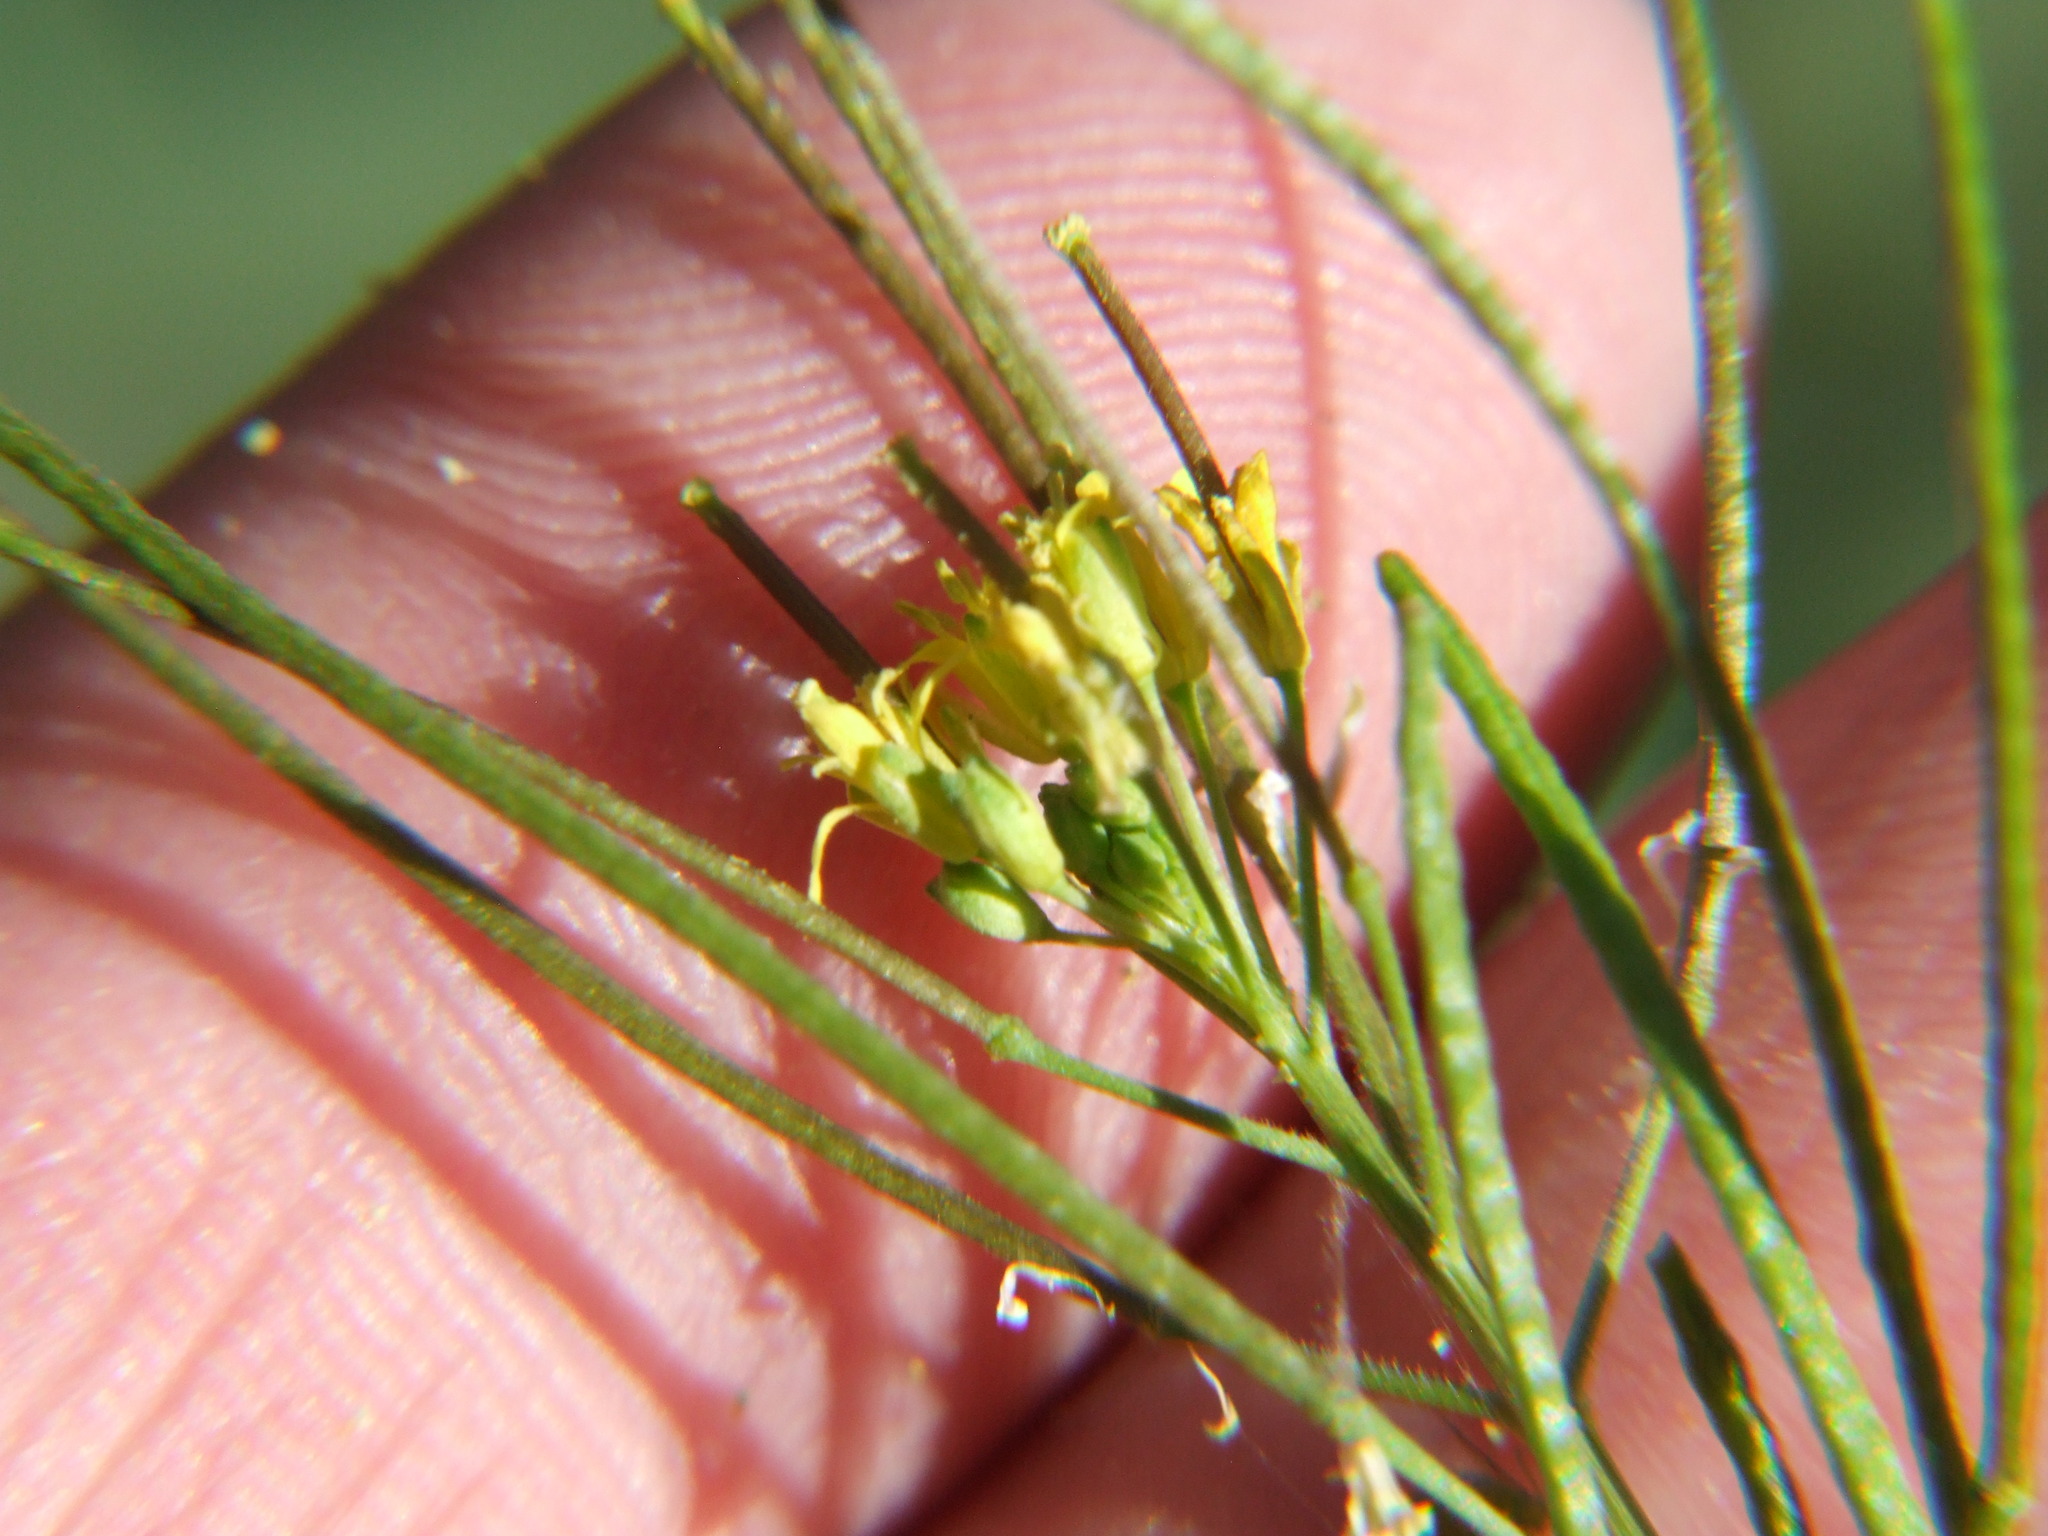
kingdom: Plantae
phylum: Tracheophyta
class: Magnoliopsida
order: Brassicales
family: Brassicaceae
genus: Sisymbrium
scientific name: Sisymbrium irio
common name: London rocket
